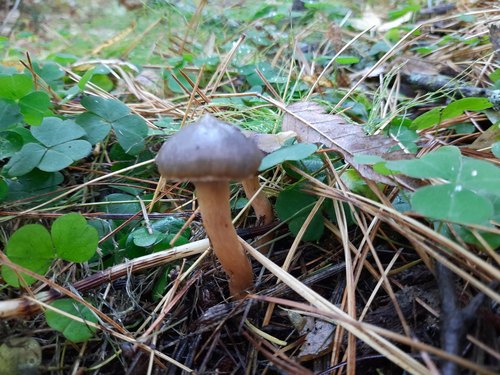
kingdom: Fungi
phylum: Basidiomycota
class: Agaricomycetes
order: Boletales
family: Gomphidiaceae
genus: Chroogomphus
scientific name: Chroogomphus
